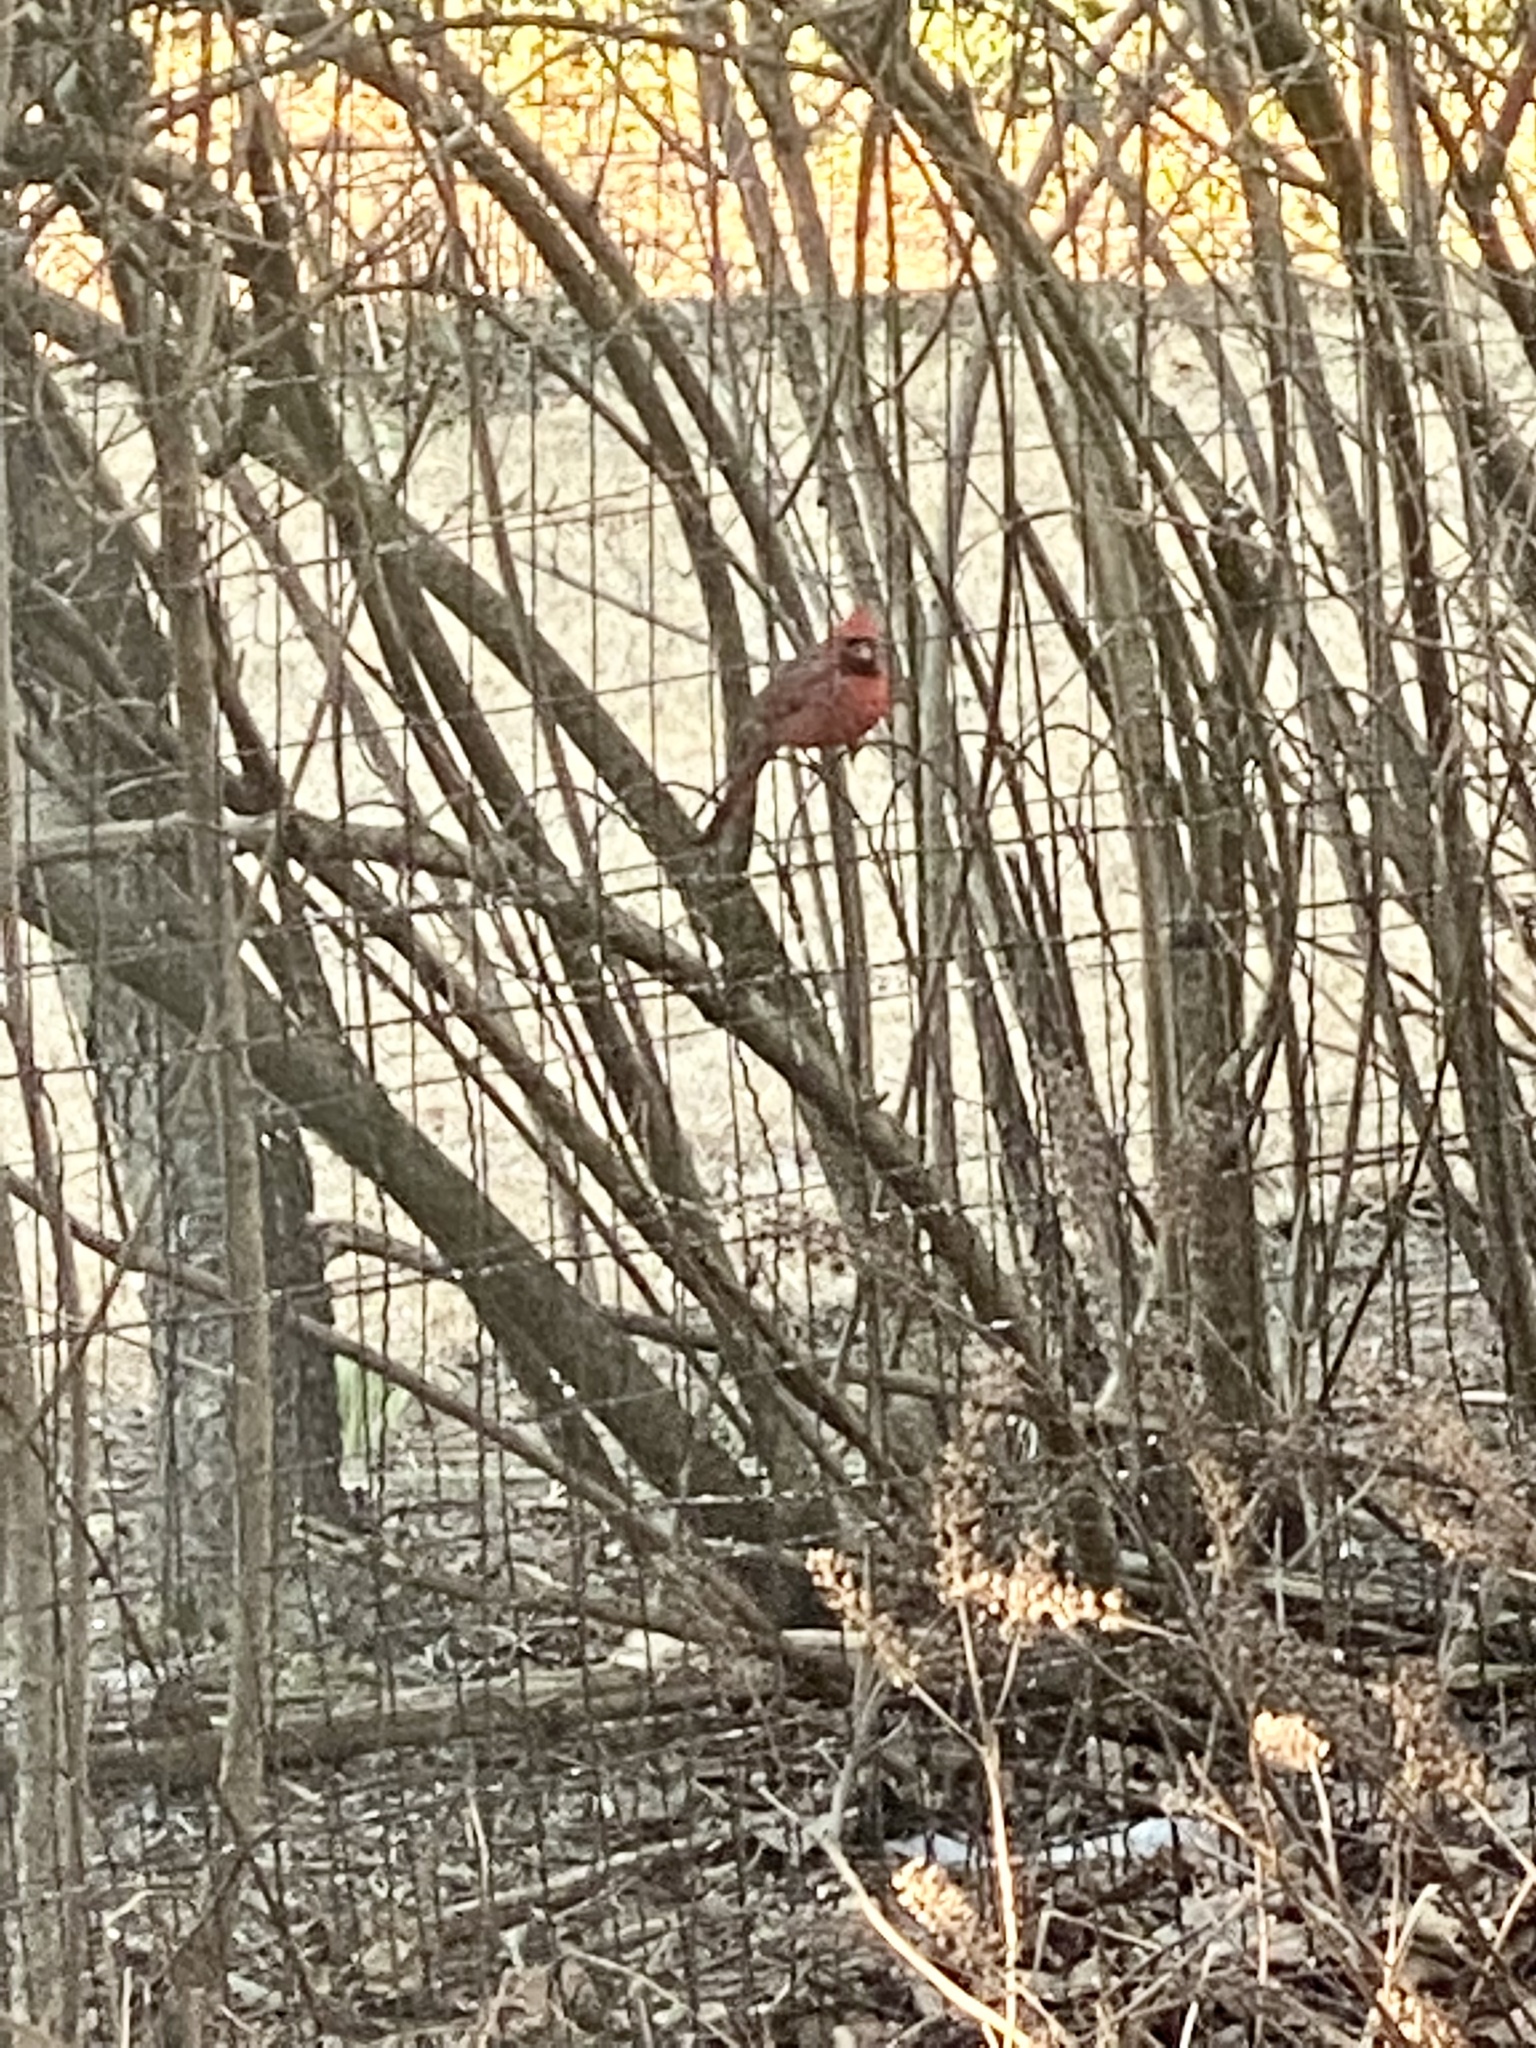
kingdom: Animalia
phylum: Chordata
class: Aves
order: Passeriformes
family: Cardinalidae
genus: Cardinalis
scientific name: Cardinalis cardinalis
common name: Northern cardinal
